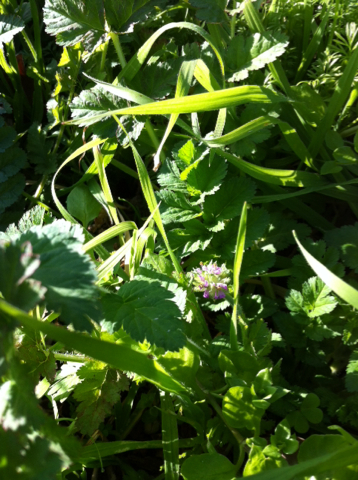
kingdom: Plantae
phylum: Tracheophyta
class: Magnoliopsida
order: Geraniales
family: Geraniaceae
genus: Erodium
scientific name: Erodium moschatum
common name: Musk stork's-bill
